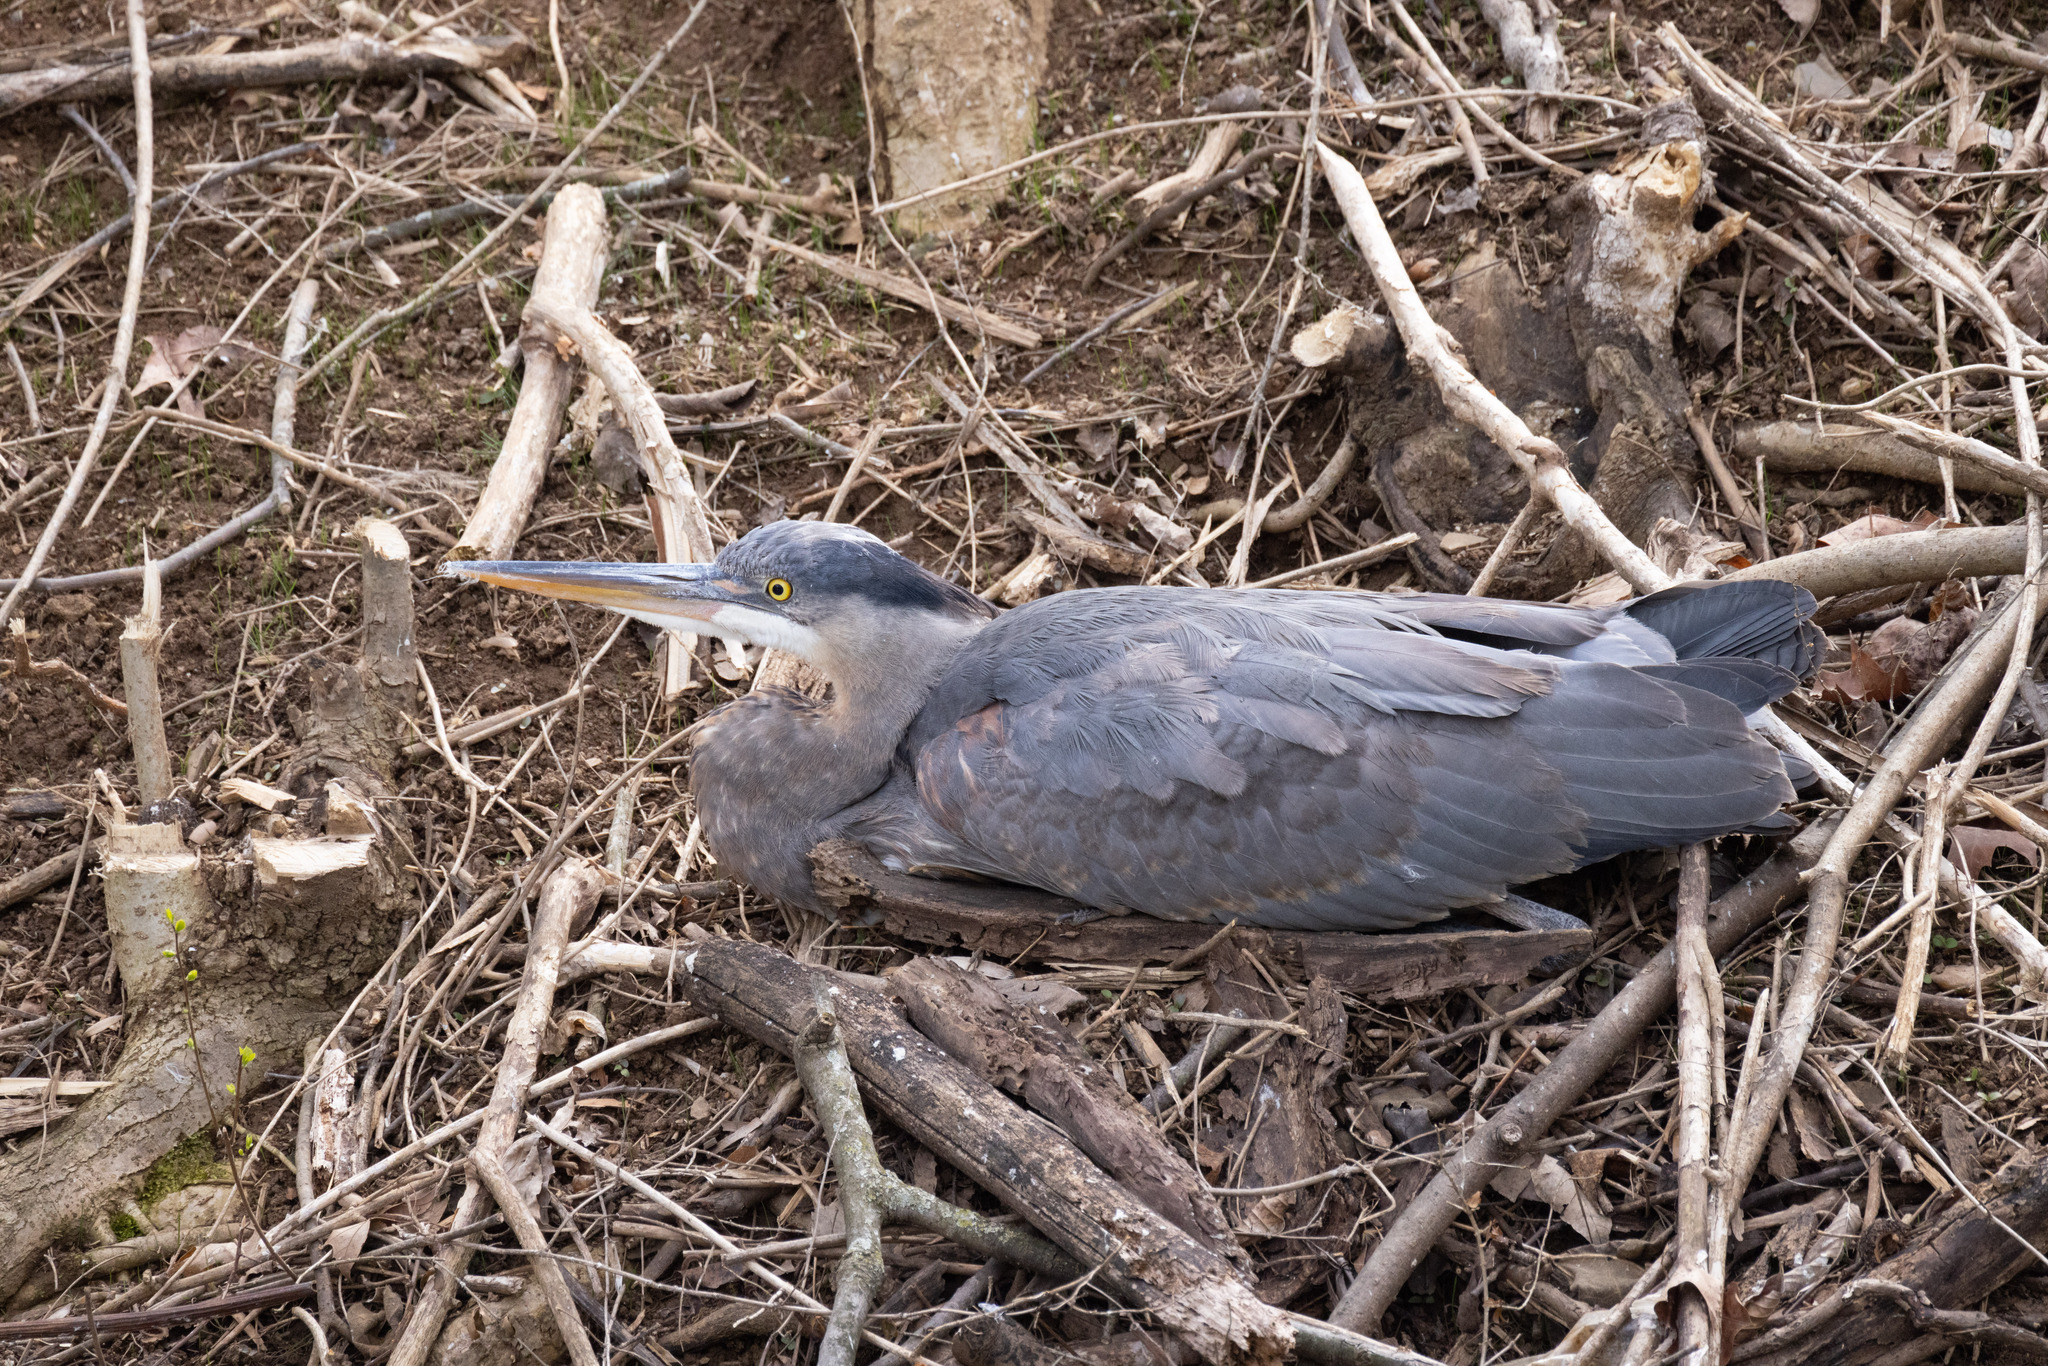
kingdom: Animalia
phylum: Chordata
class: Aves
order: Pelecaniformes
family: Ardeidae
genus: Ardea
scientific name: Ardea herodias
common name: Great blue heron
